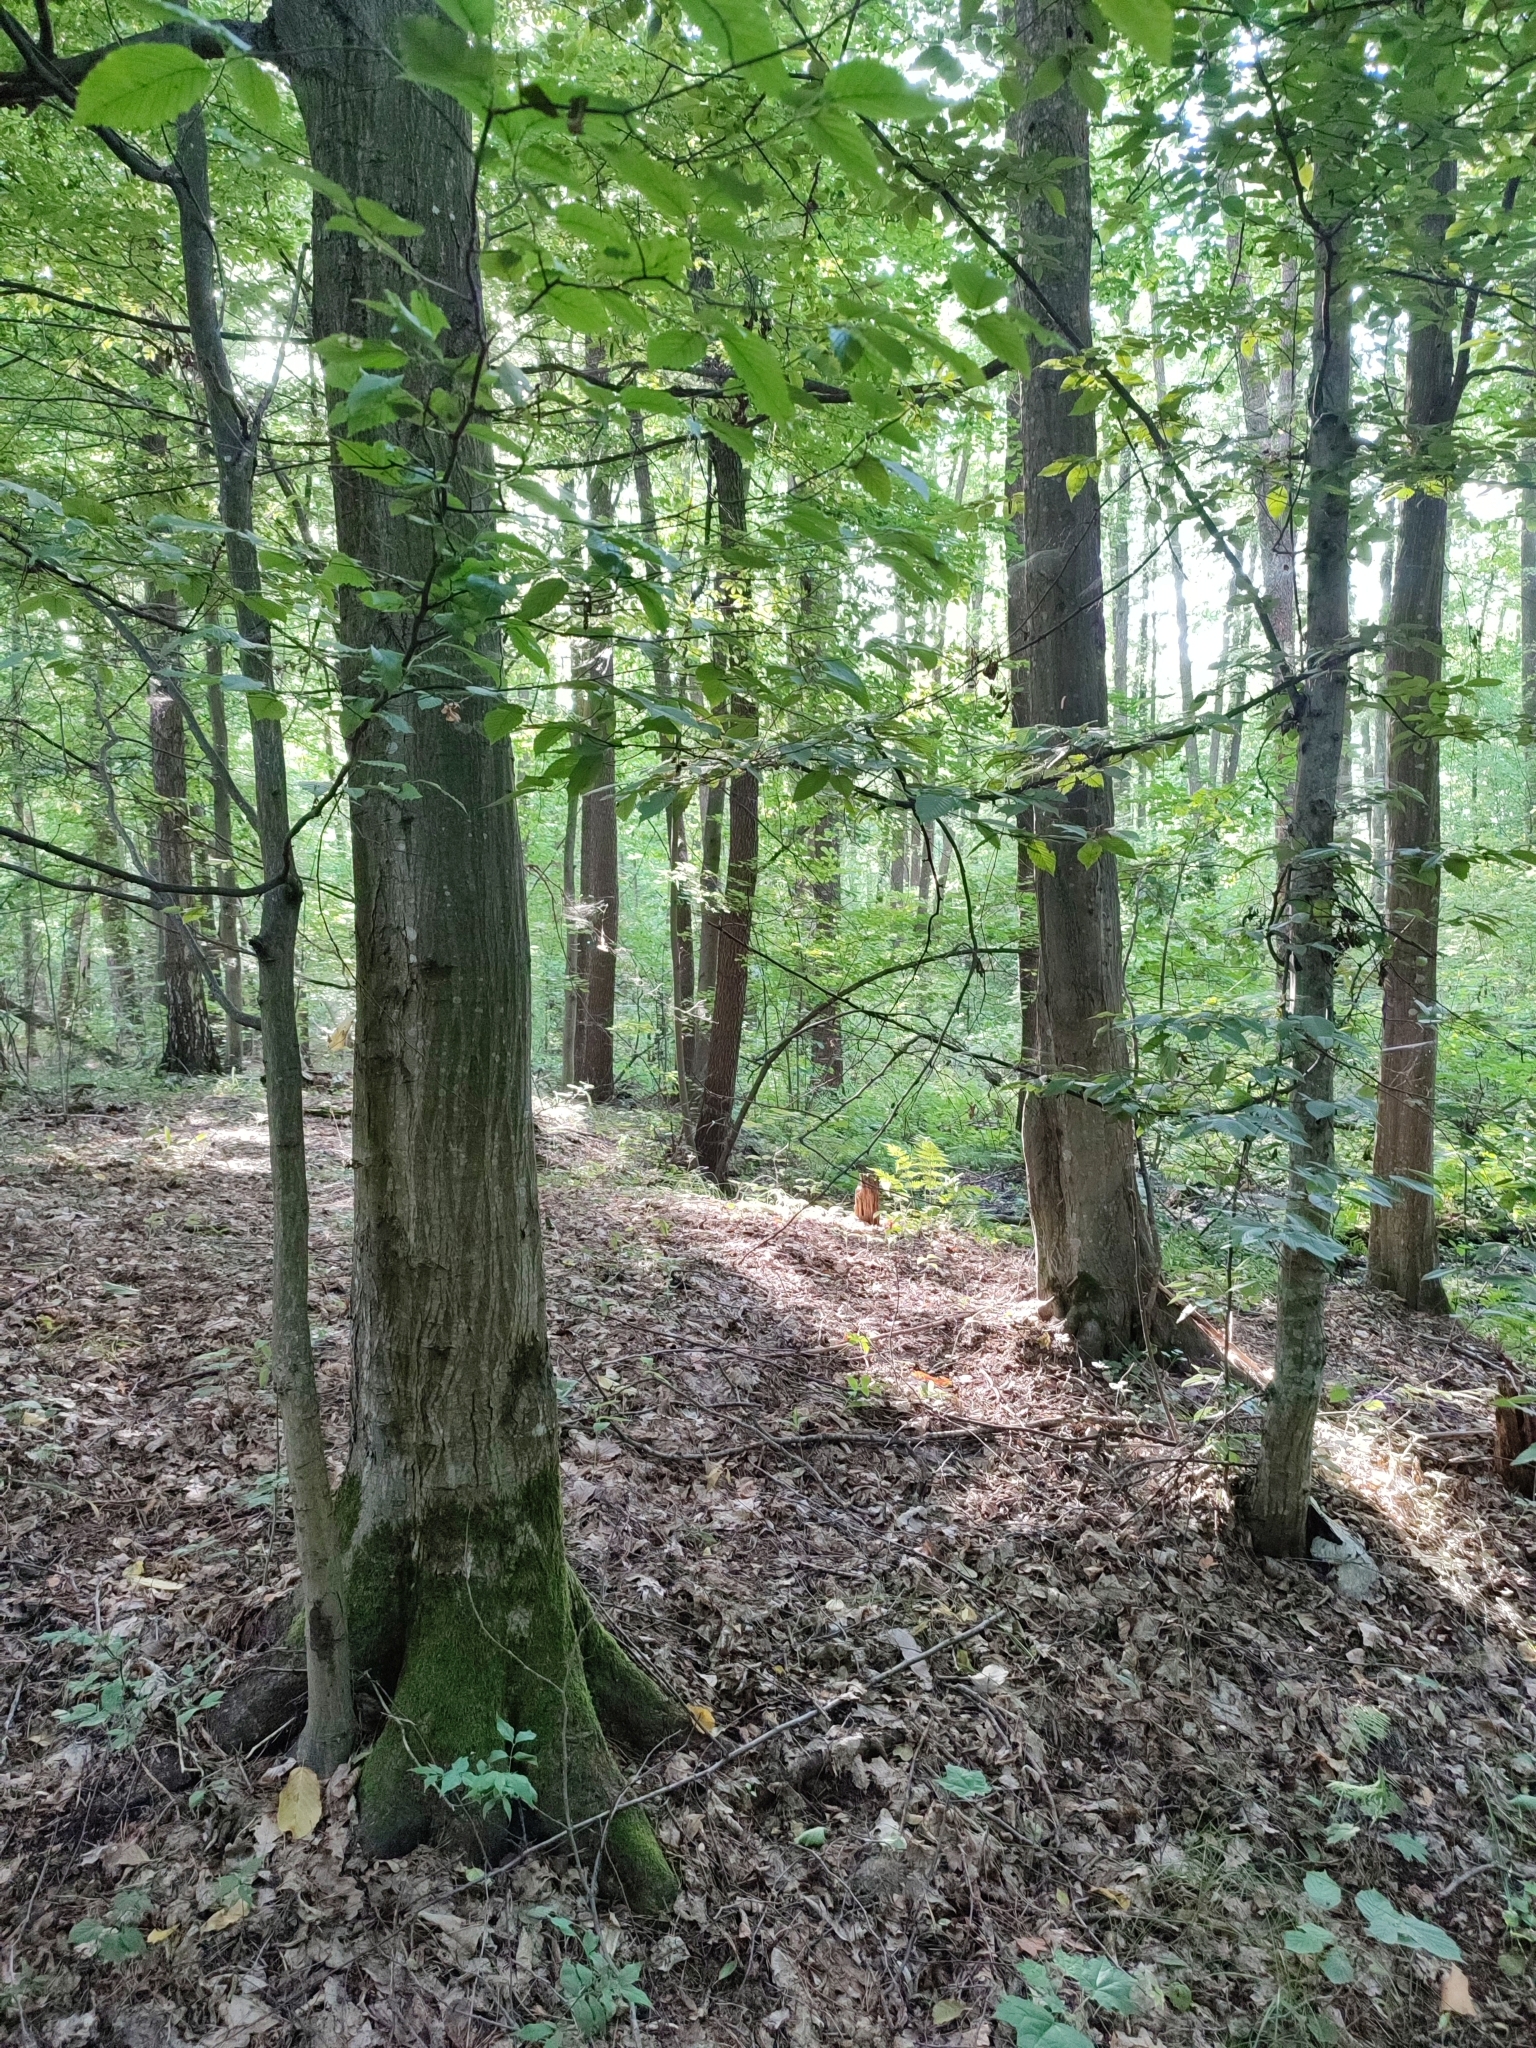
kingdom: Plantae
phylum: Tracheophyta
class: Magnoliopsida
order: Fagales
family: Betulaceae
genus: Carpinus
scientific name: Carpinus betulus
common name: Hornbeam
